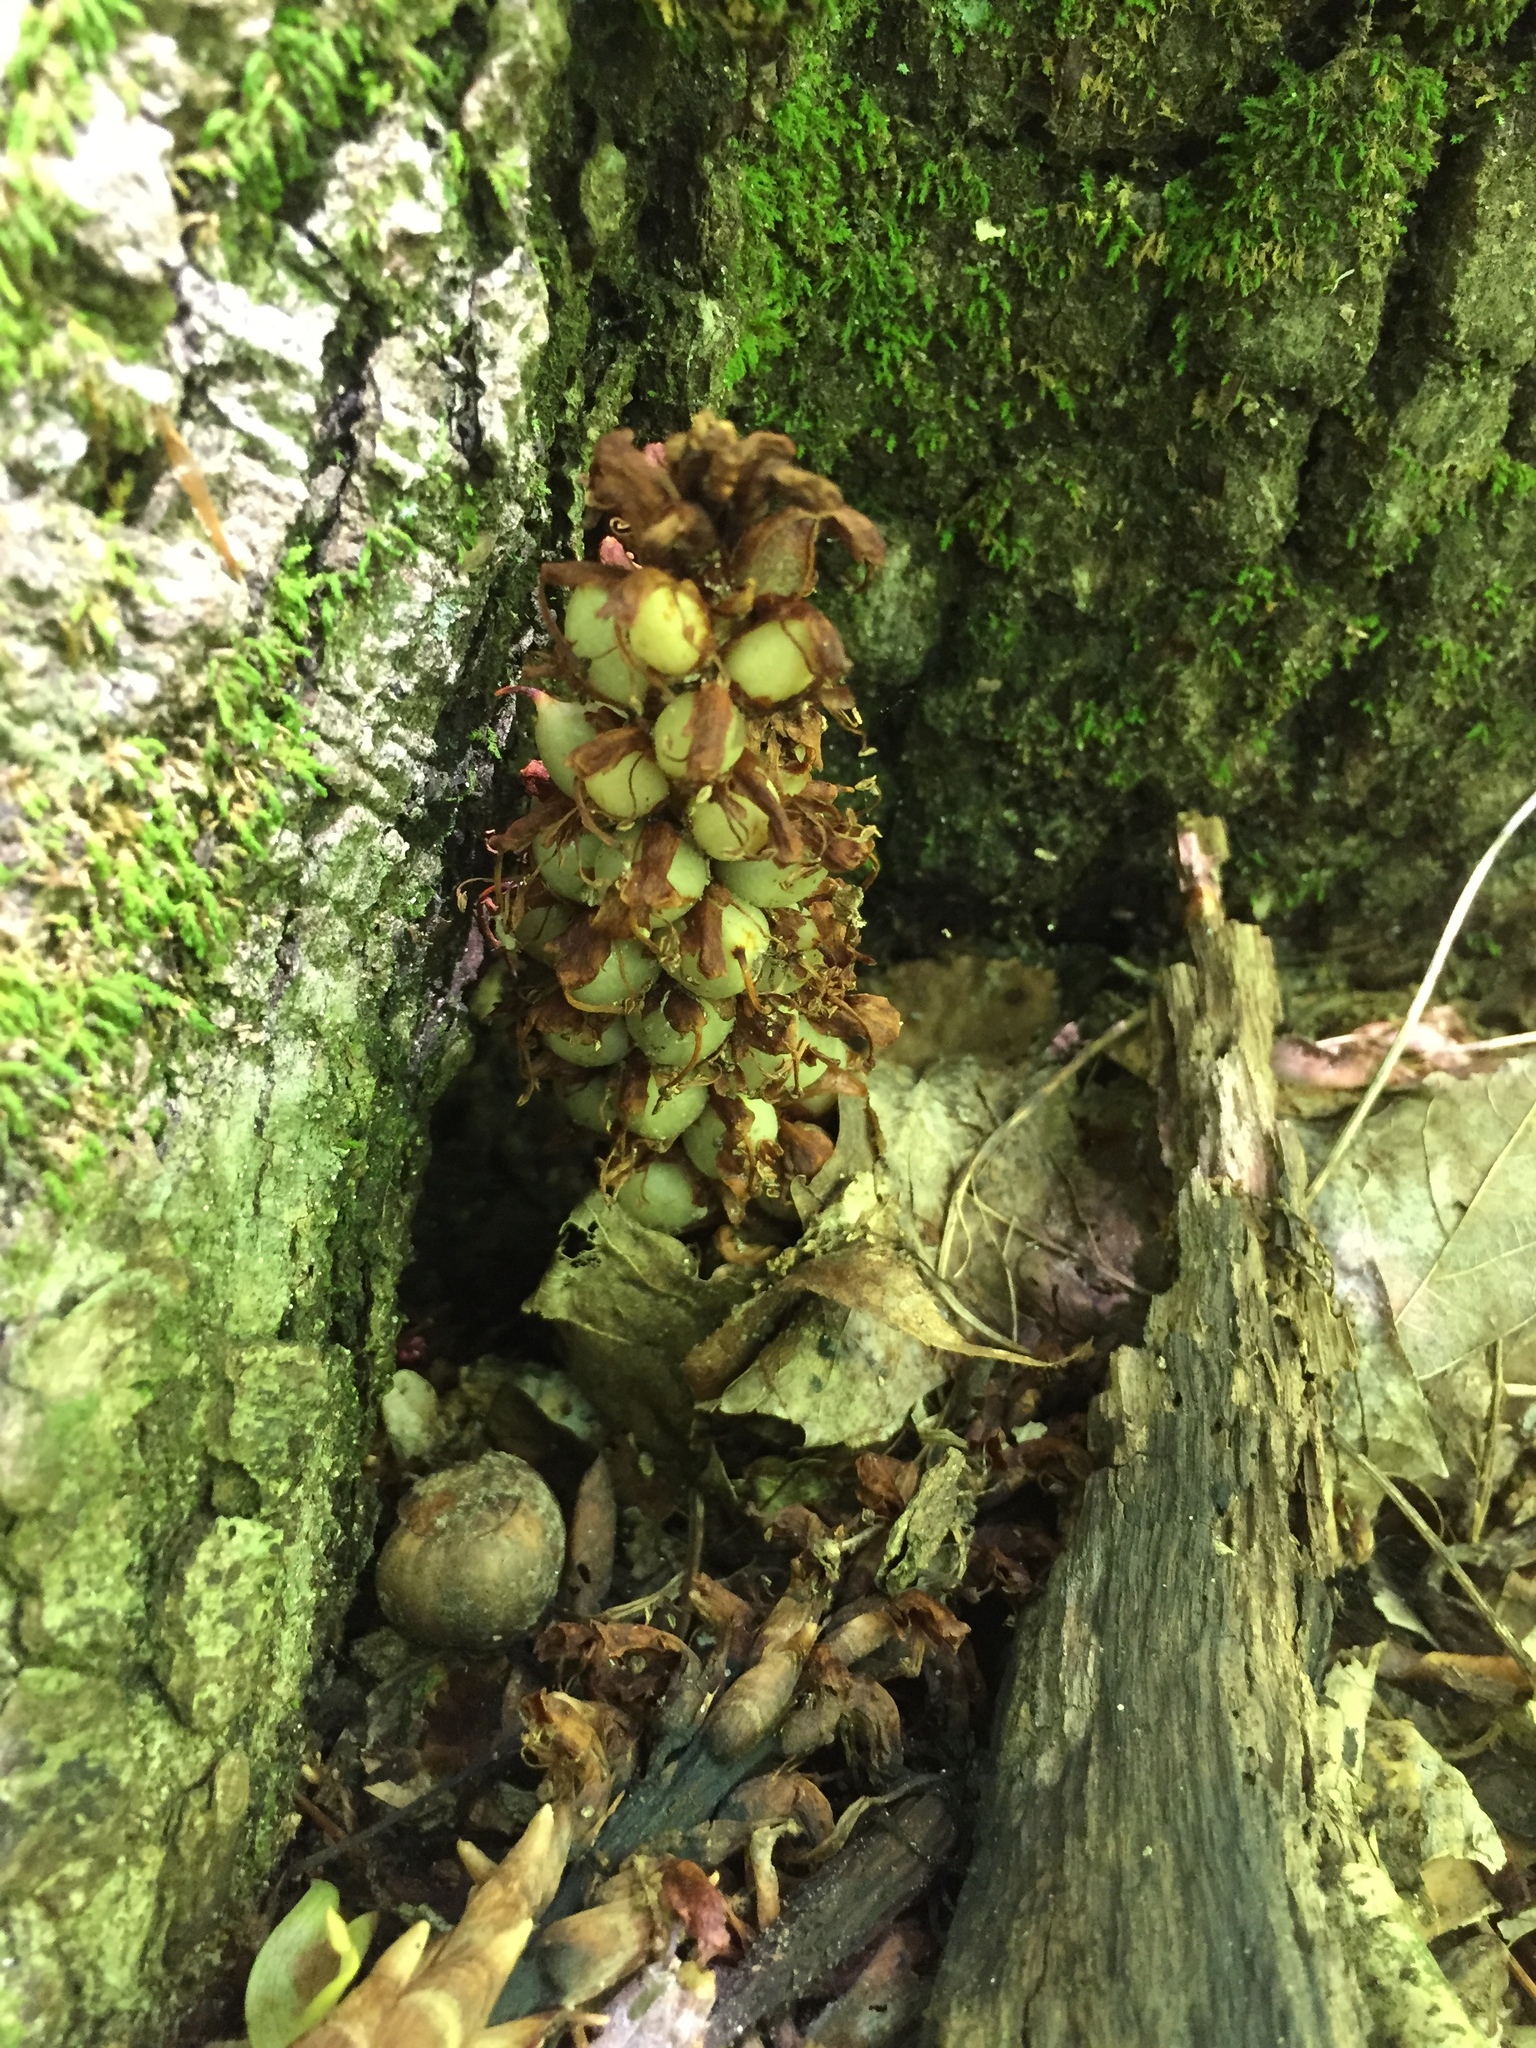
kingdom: Plantae
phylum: Tracheophyta
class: Magnoliopsida
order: Lamiales
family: Orobanchaceae
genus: Conopholis
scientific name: Conopholis americana
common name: American cancer-root
